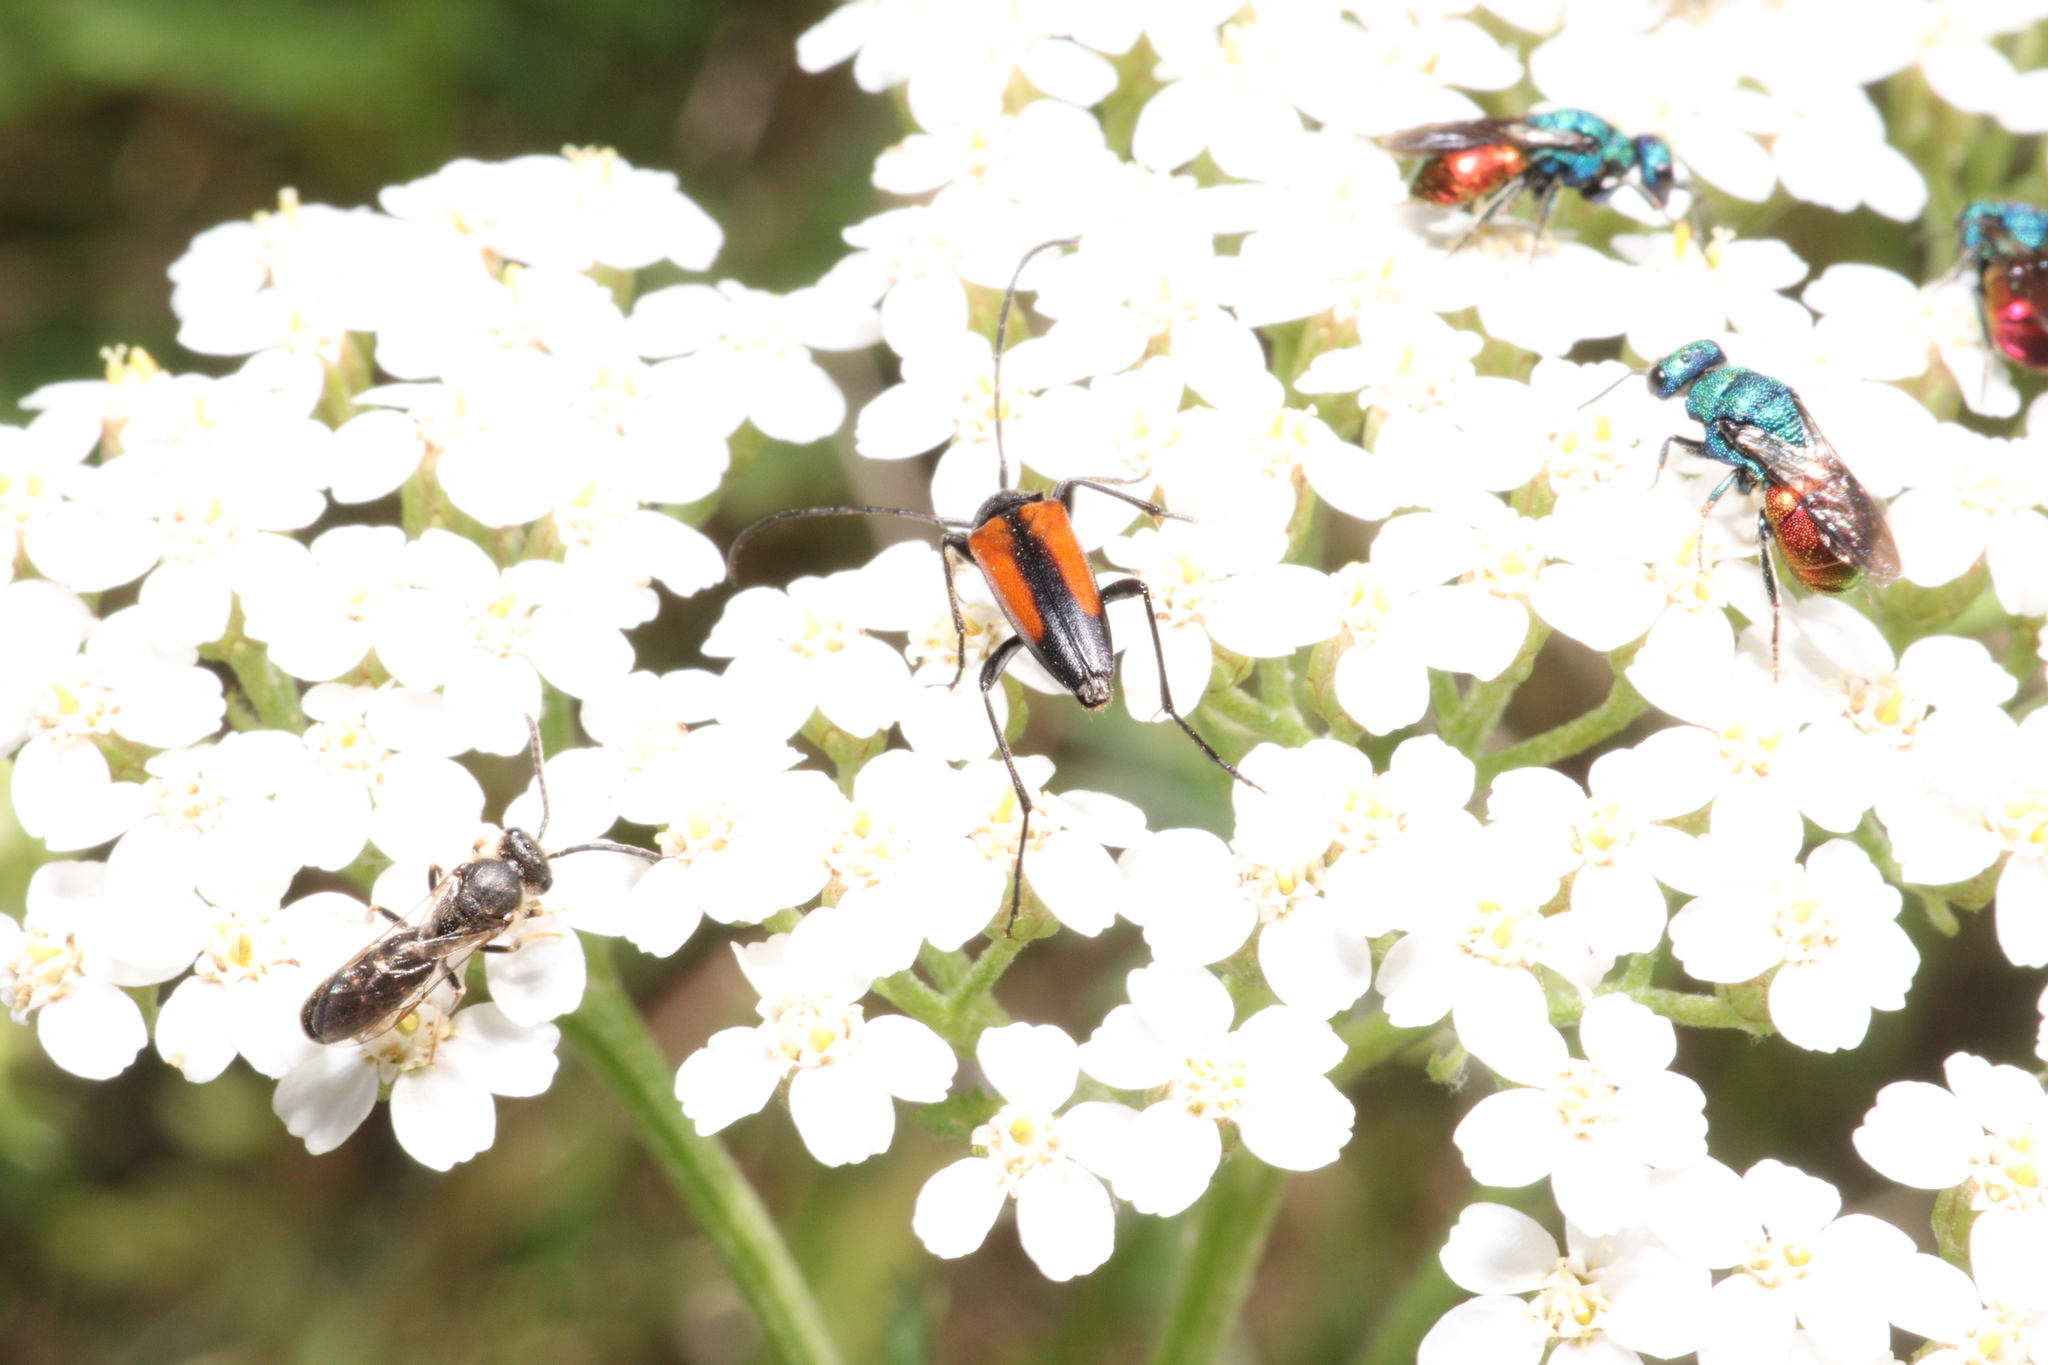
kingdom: Animalia
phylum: Arthropoda
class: Insecta
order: Coleoptera
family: Cerambycidae
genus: Stenurella
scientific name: Stenurella melanura
